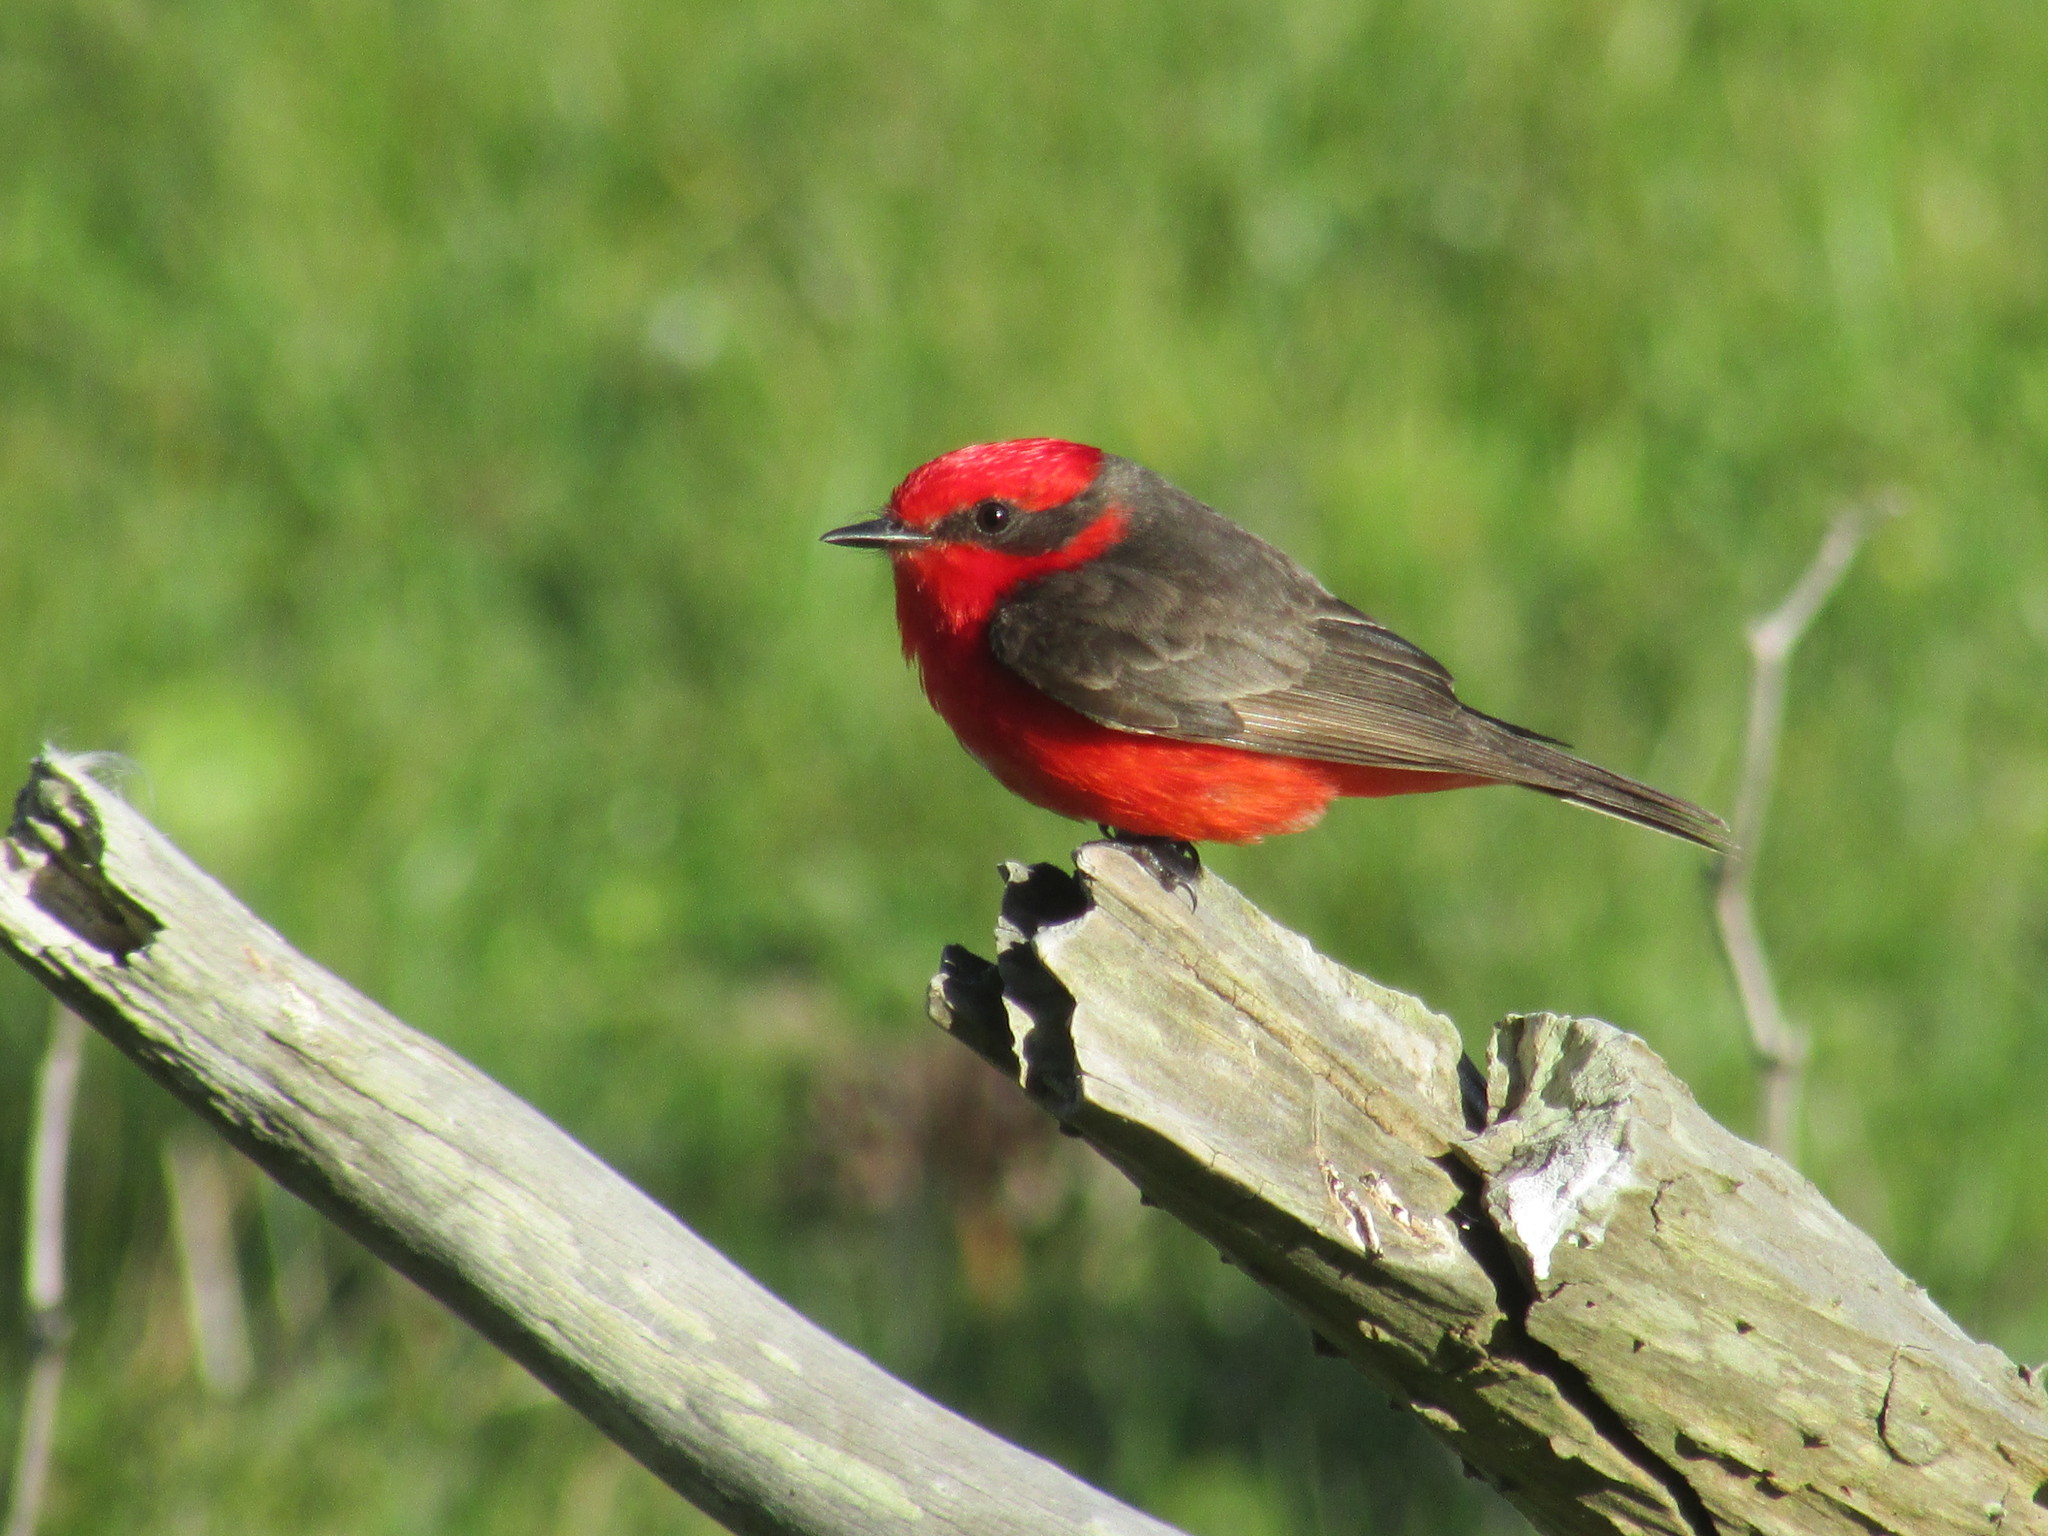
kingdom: Animalia
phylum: Chordata
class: Aves
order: Passeriformes
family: Tyrannidae
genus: Pyrocephalus
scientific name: Pyrocephalus rubinus
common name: Vermilion flycatcher
